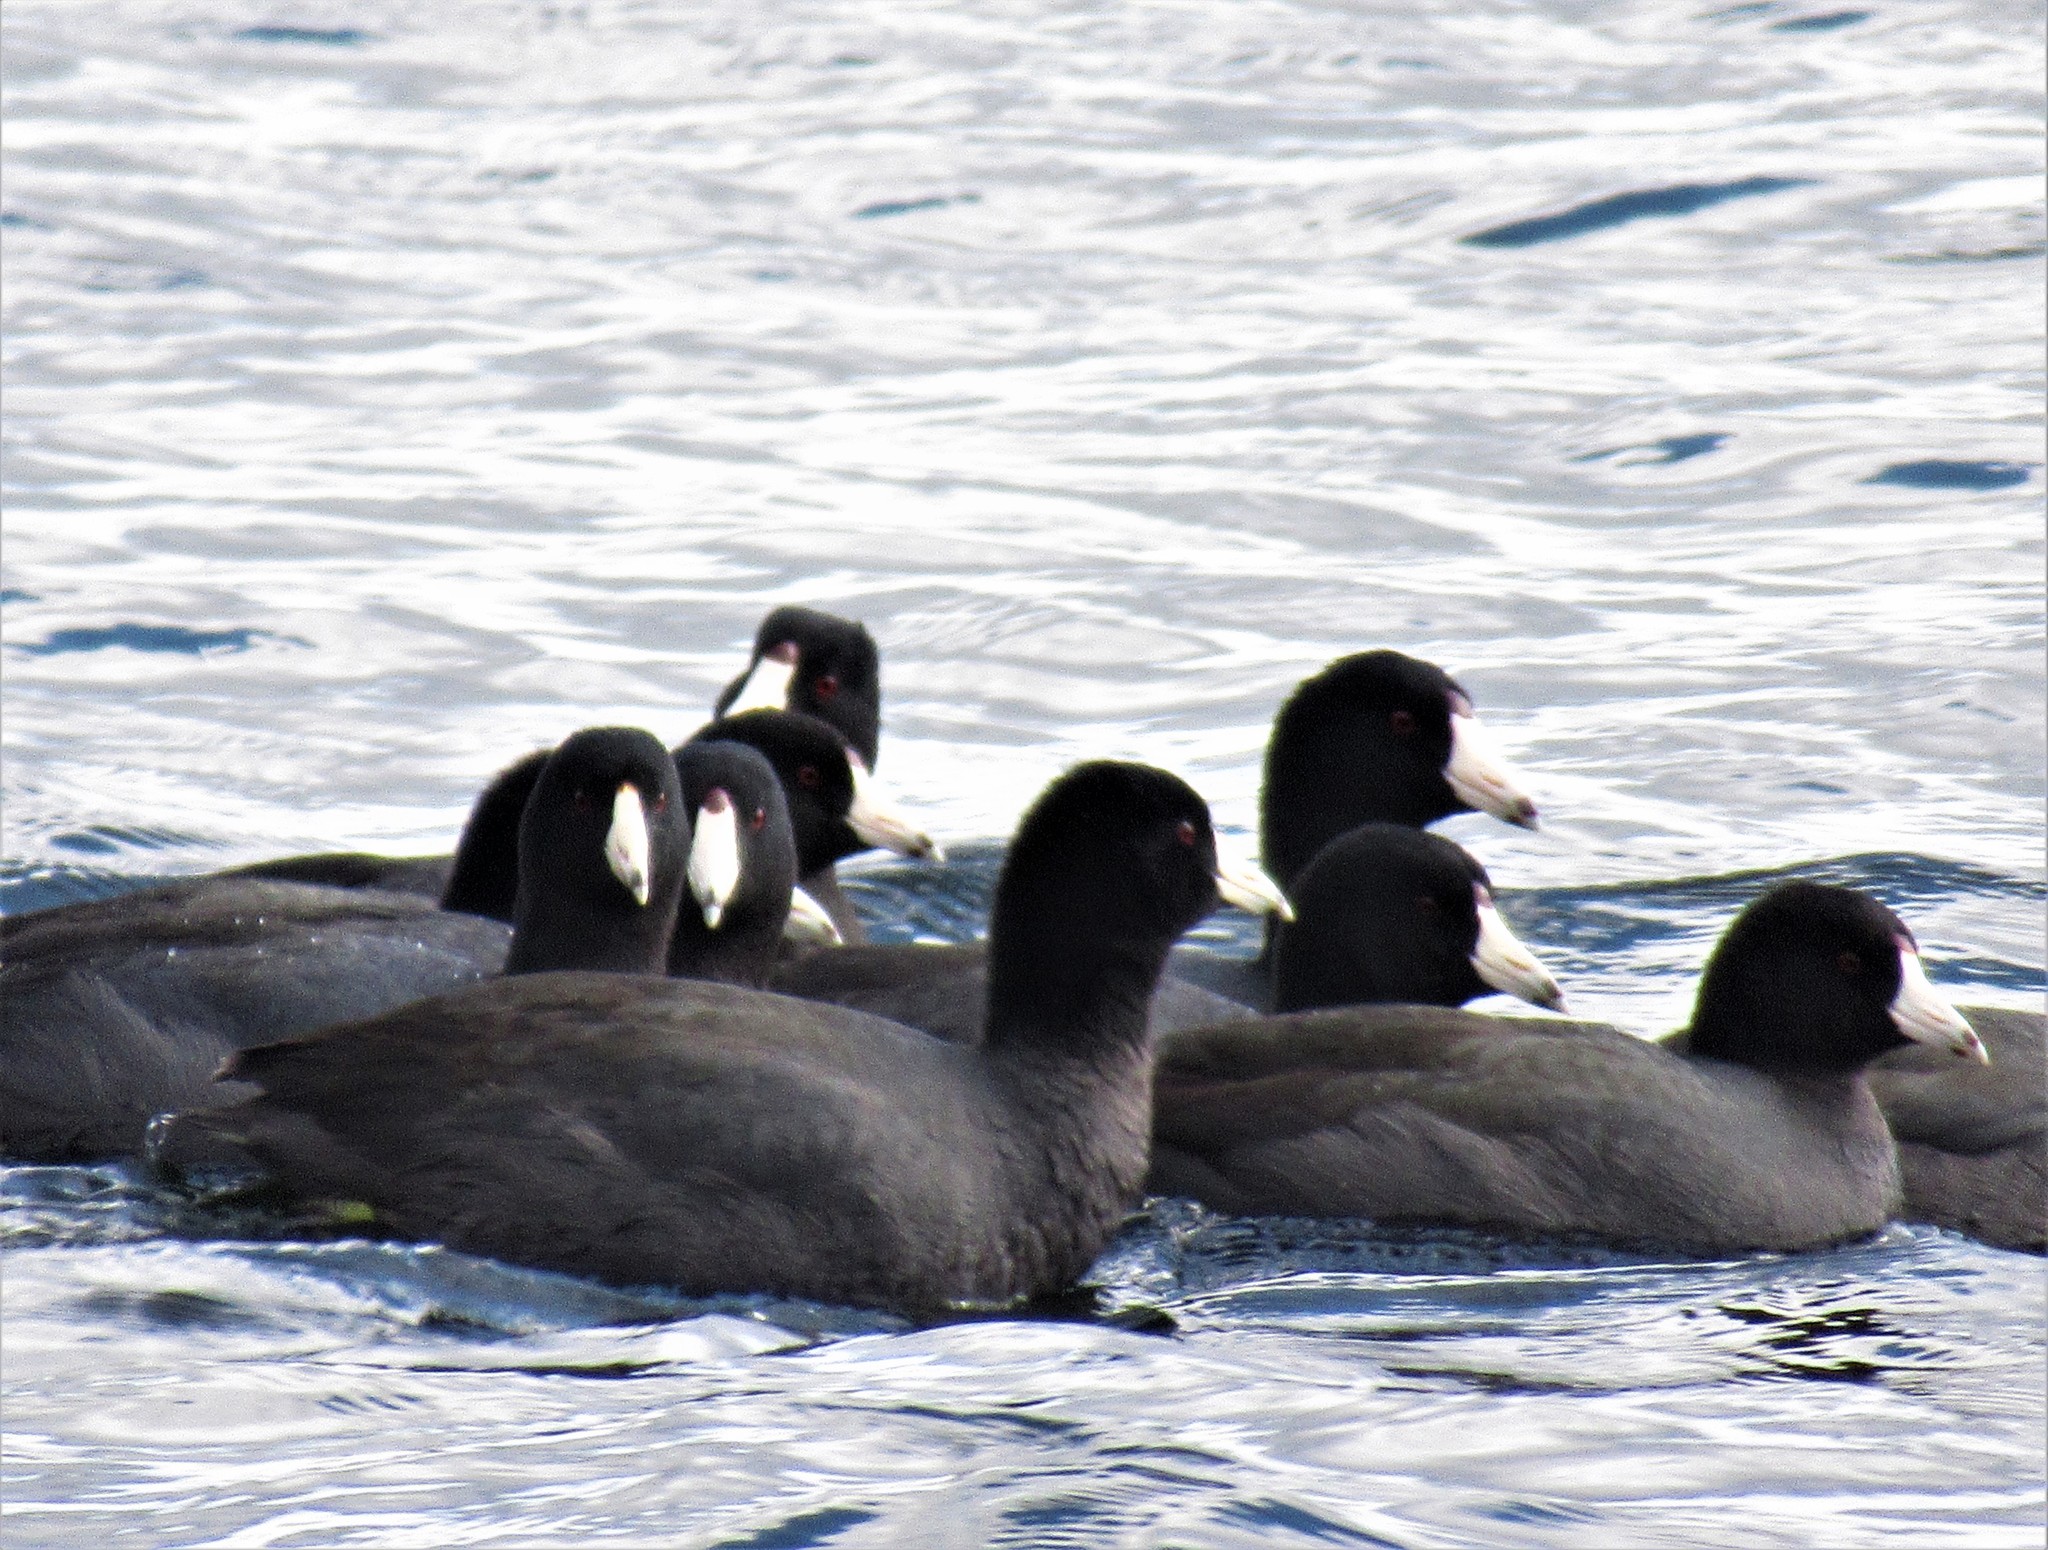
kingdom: Animalia
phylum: Chordata
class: Aves
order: Gruiformes
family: Rallidae
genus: Fulica
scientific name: Fulica americana
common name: American coot
